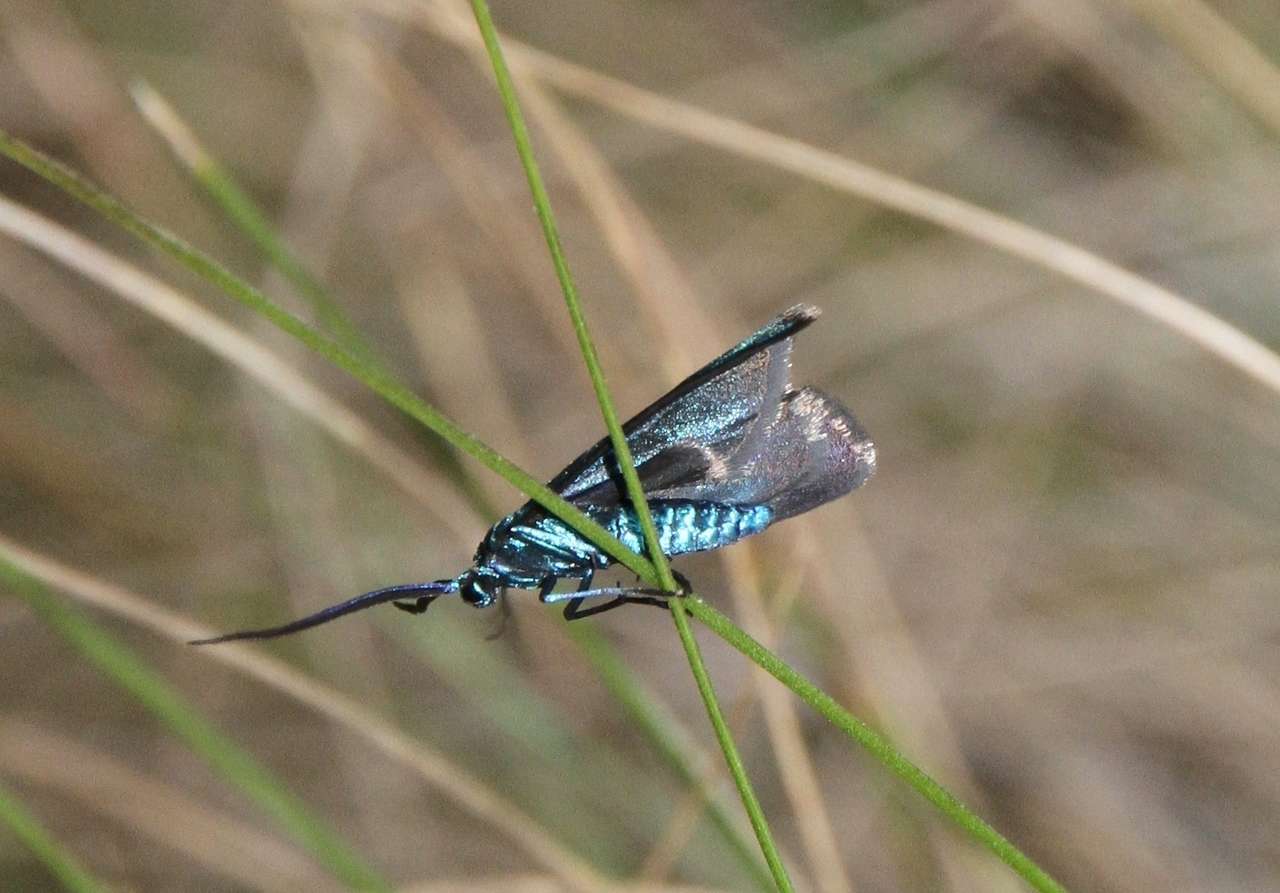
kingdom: Animalia
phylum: Arthropoda
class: Insecta
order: Lepidoptera
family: Zygaenidae
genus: Pollanisus
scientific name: Pollanisus viridipulverulenta
